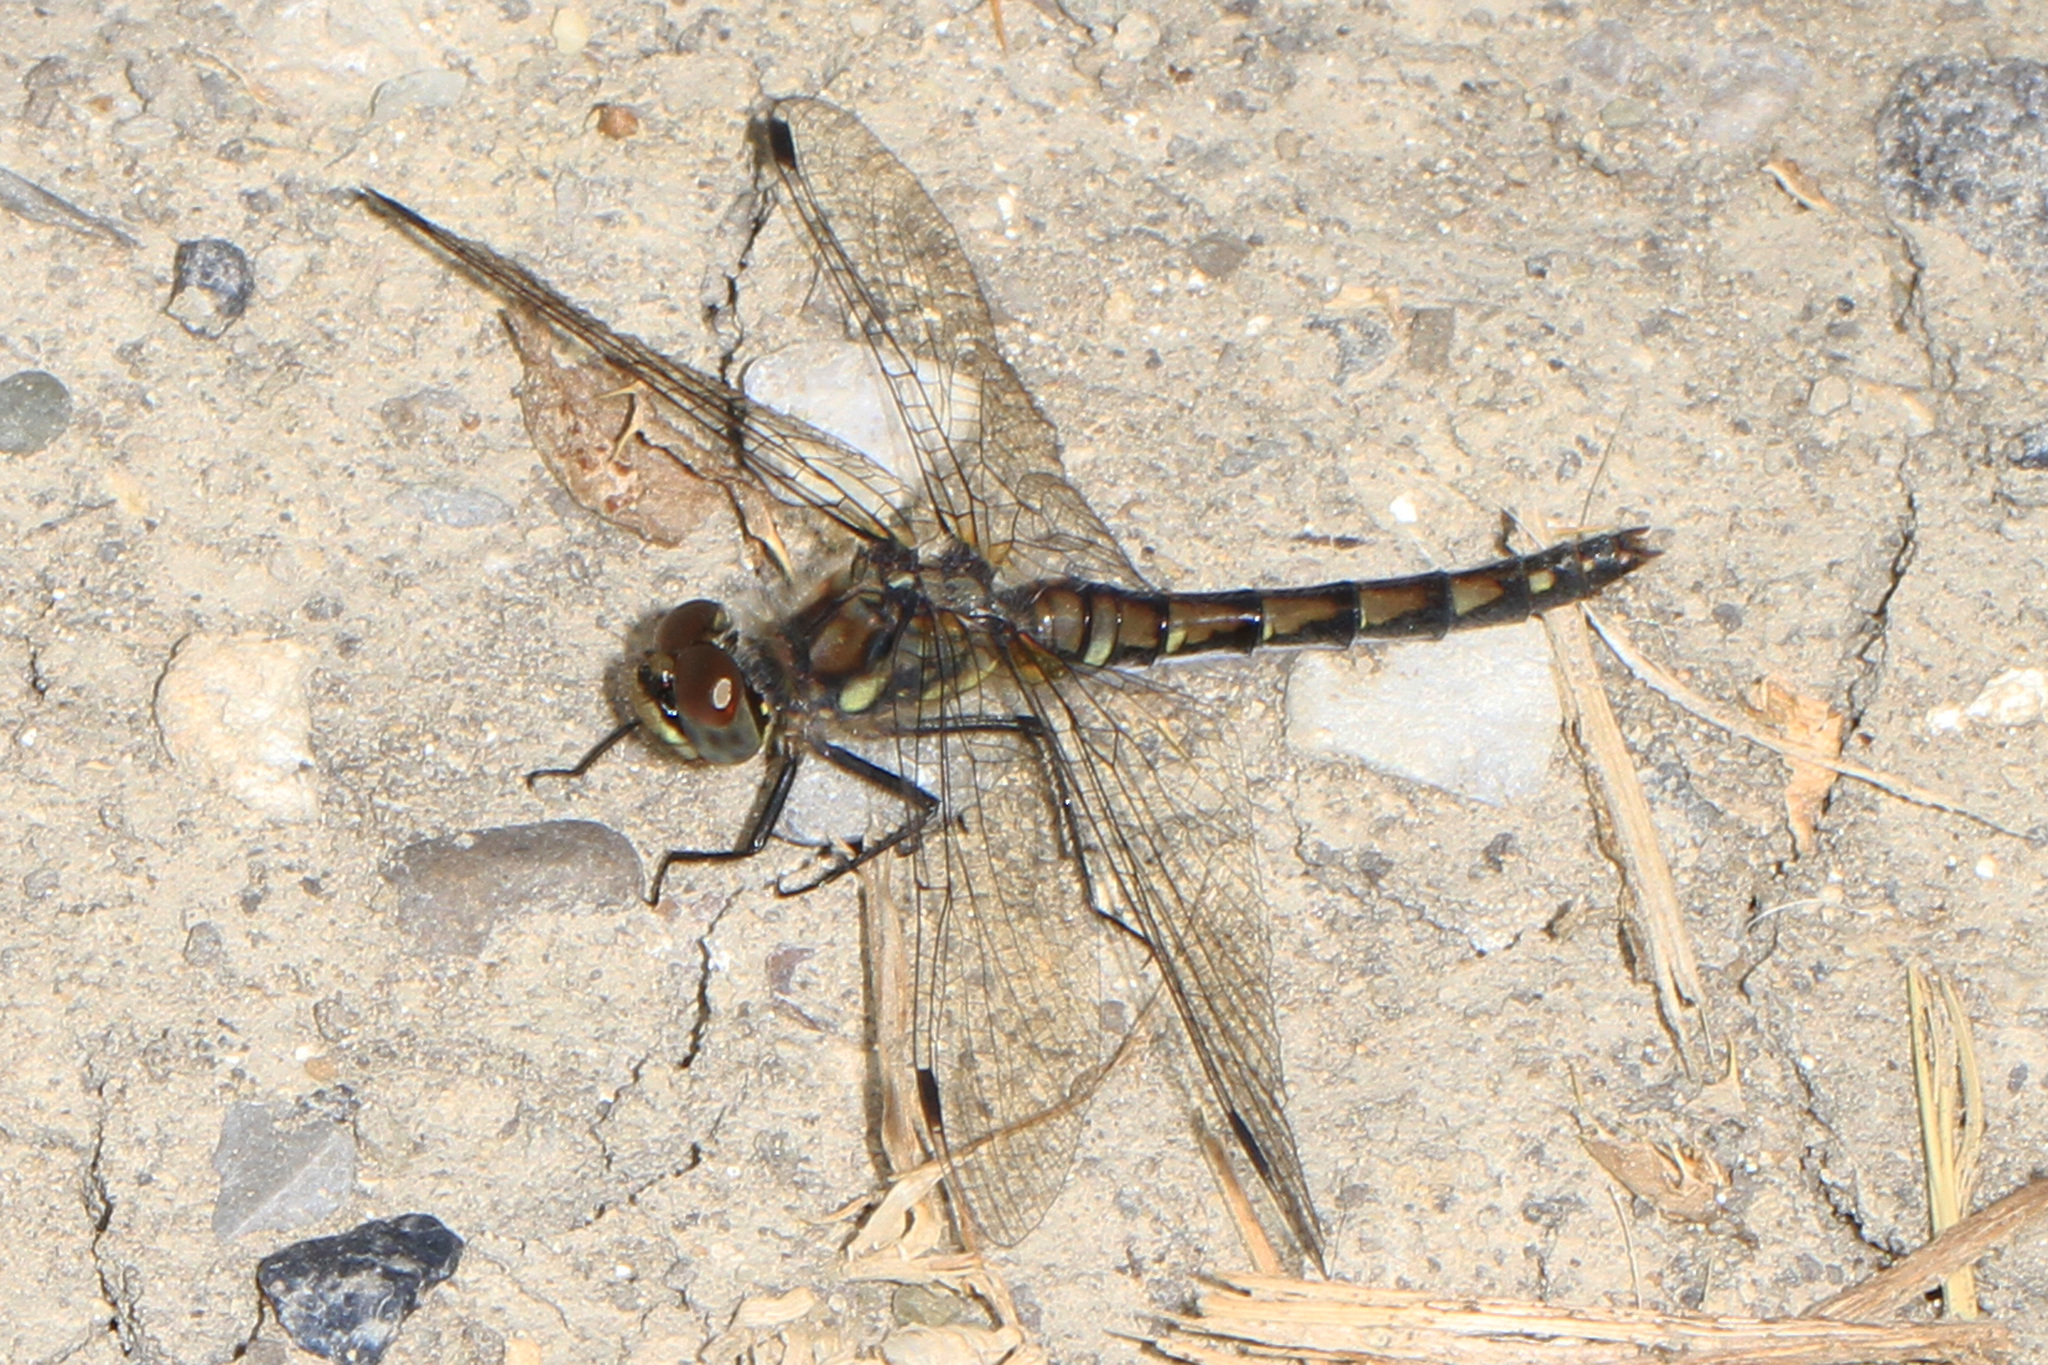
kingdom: Animalia
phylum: Arthropoda
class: Insecta
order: Odonata
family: Libellulidae
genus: Sympetrum
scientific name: Sympetrum danae
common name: Black darter
